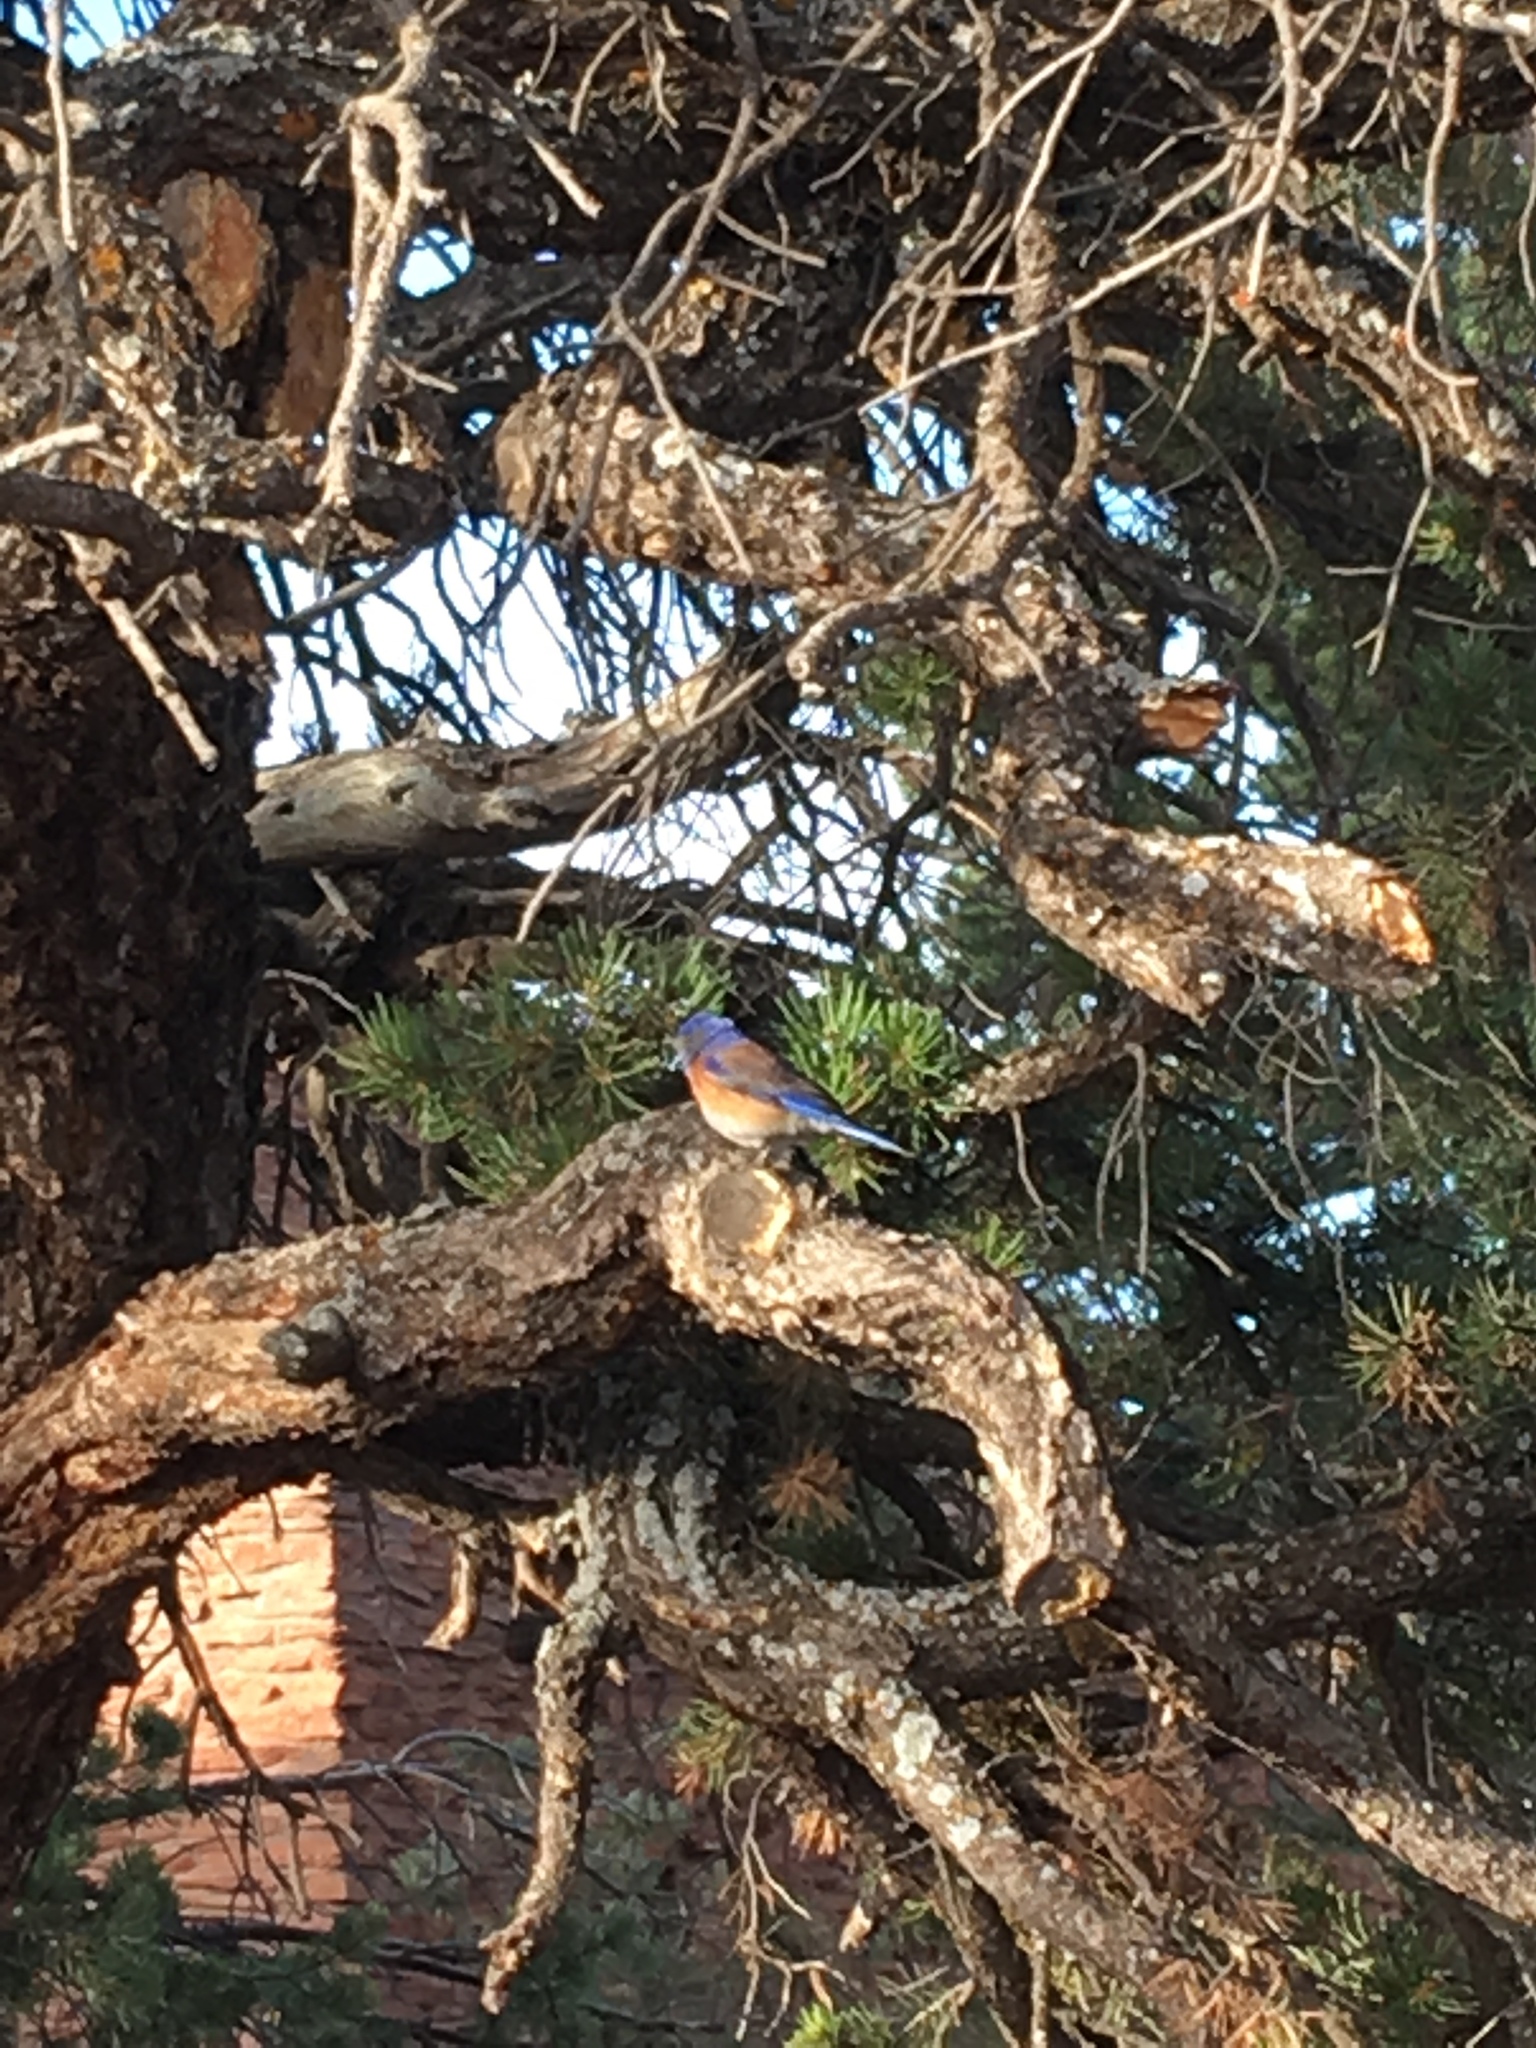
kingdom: Animalia
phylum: Chordata
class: Aves
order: Passeriformes
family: Turdidae
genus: Sialia
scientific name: Sialia mexicana
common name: Western bluebird
